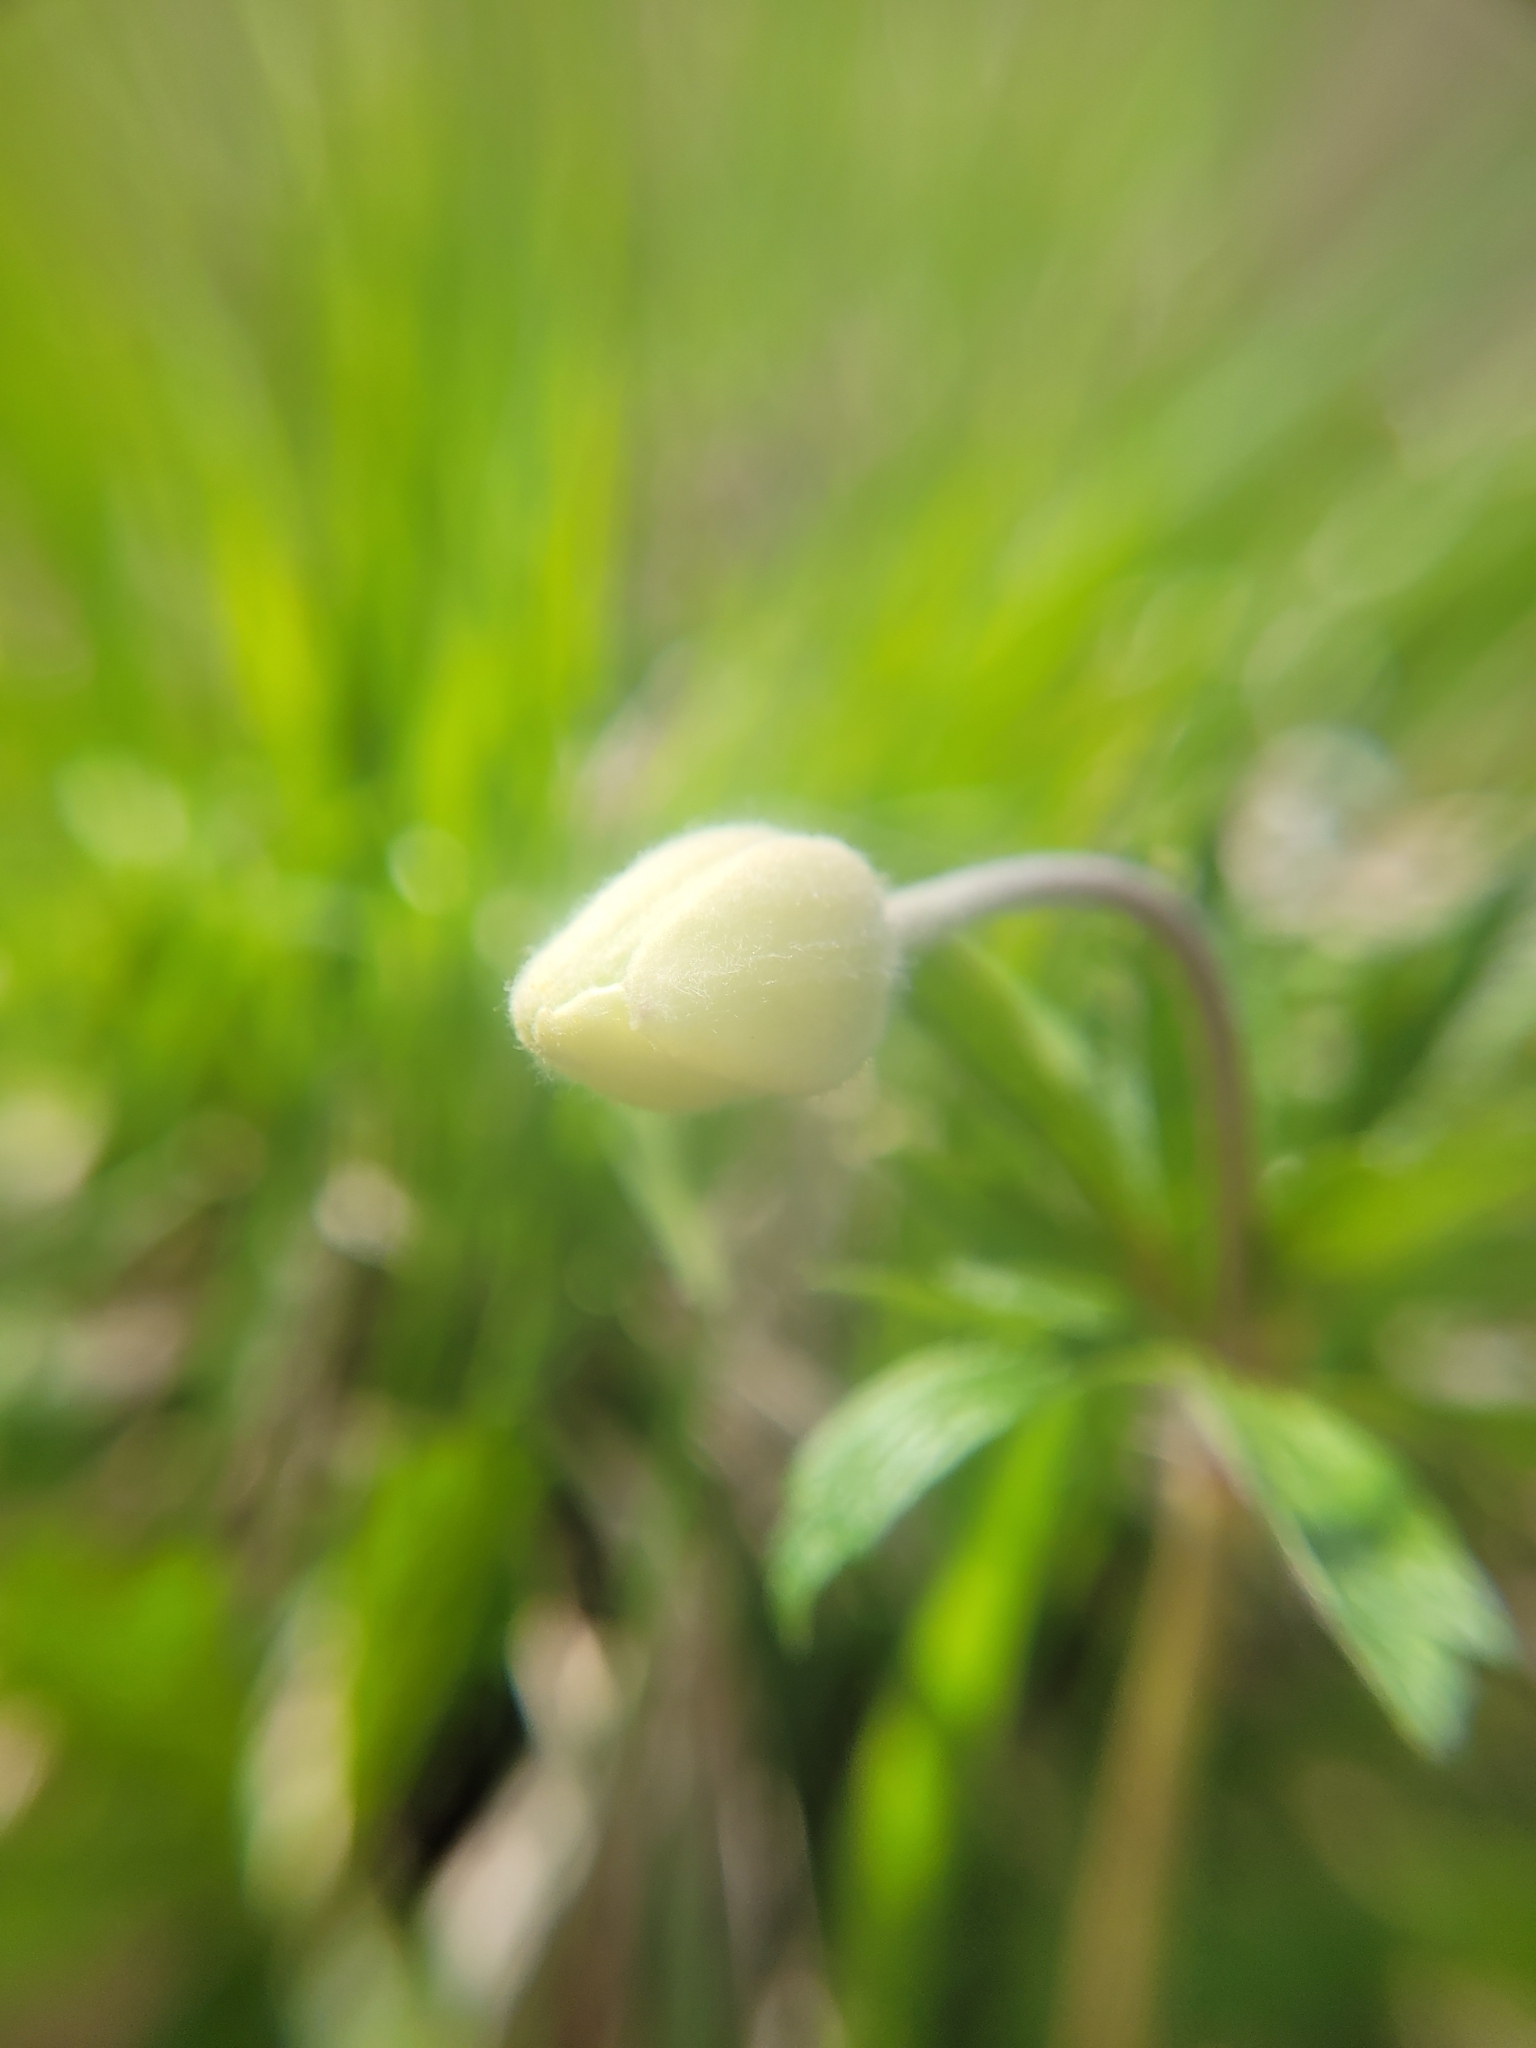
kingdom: Plantae
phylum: Tracheophyta
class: Magnoliopsida
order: Ranunculales
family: Ranunculaceae
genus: Anemone
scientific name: Anemone sylvestris
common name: Snowdrop anemone
